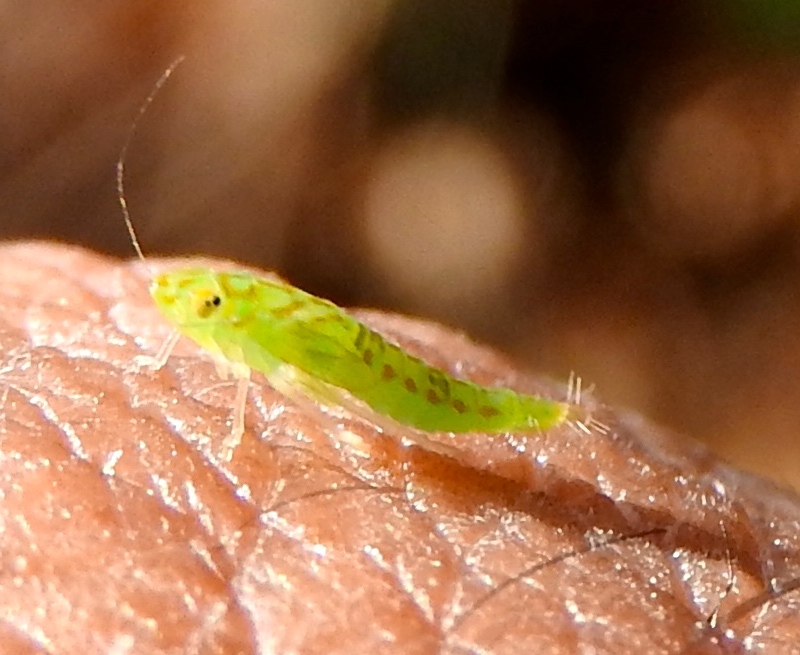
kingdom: Animalia
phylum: Arthropoda
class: Insecta
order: Hemiptera
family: Cicadellidae
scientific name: Cicadellidae
